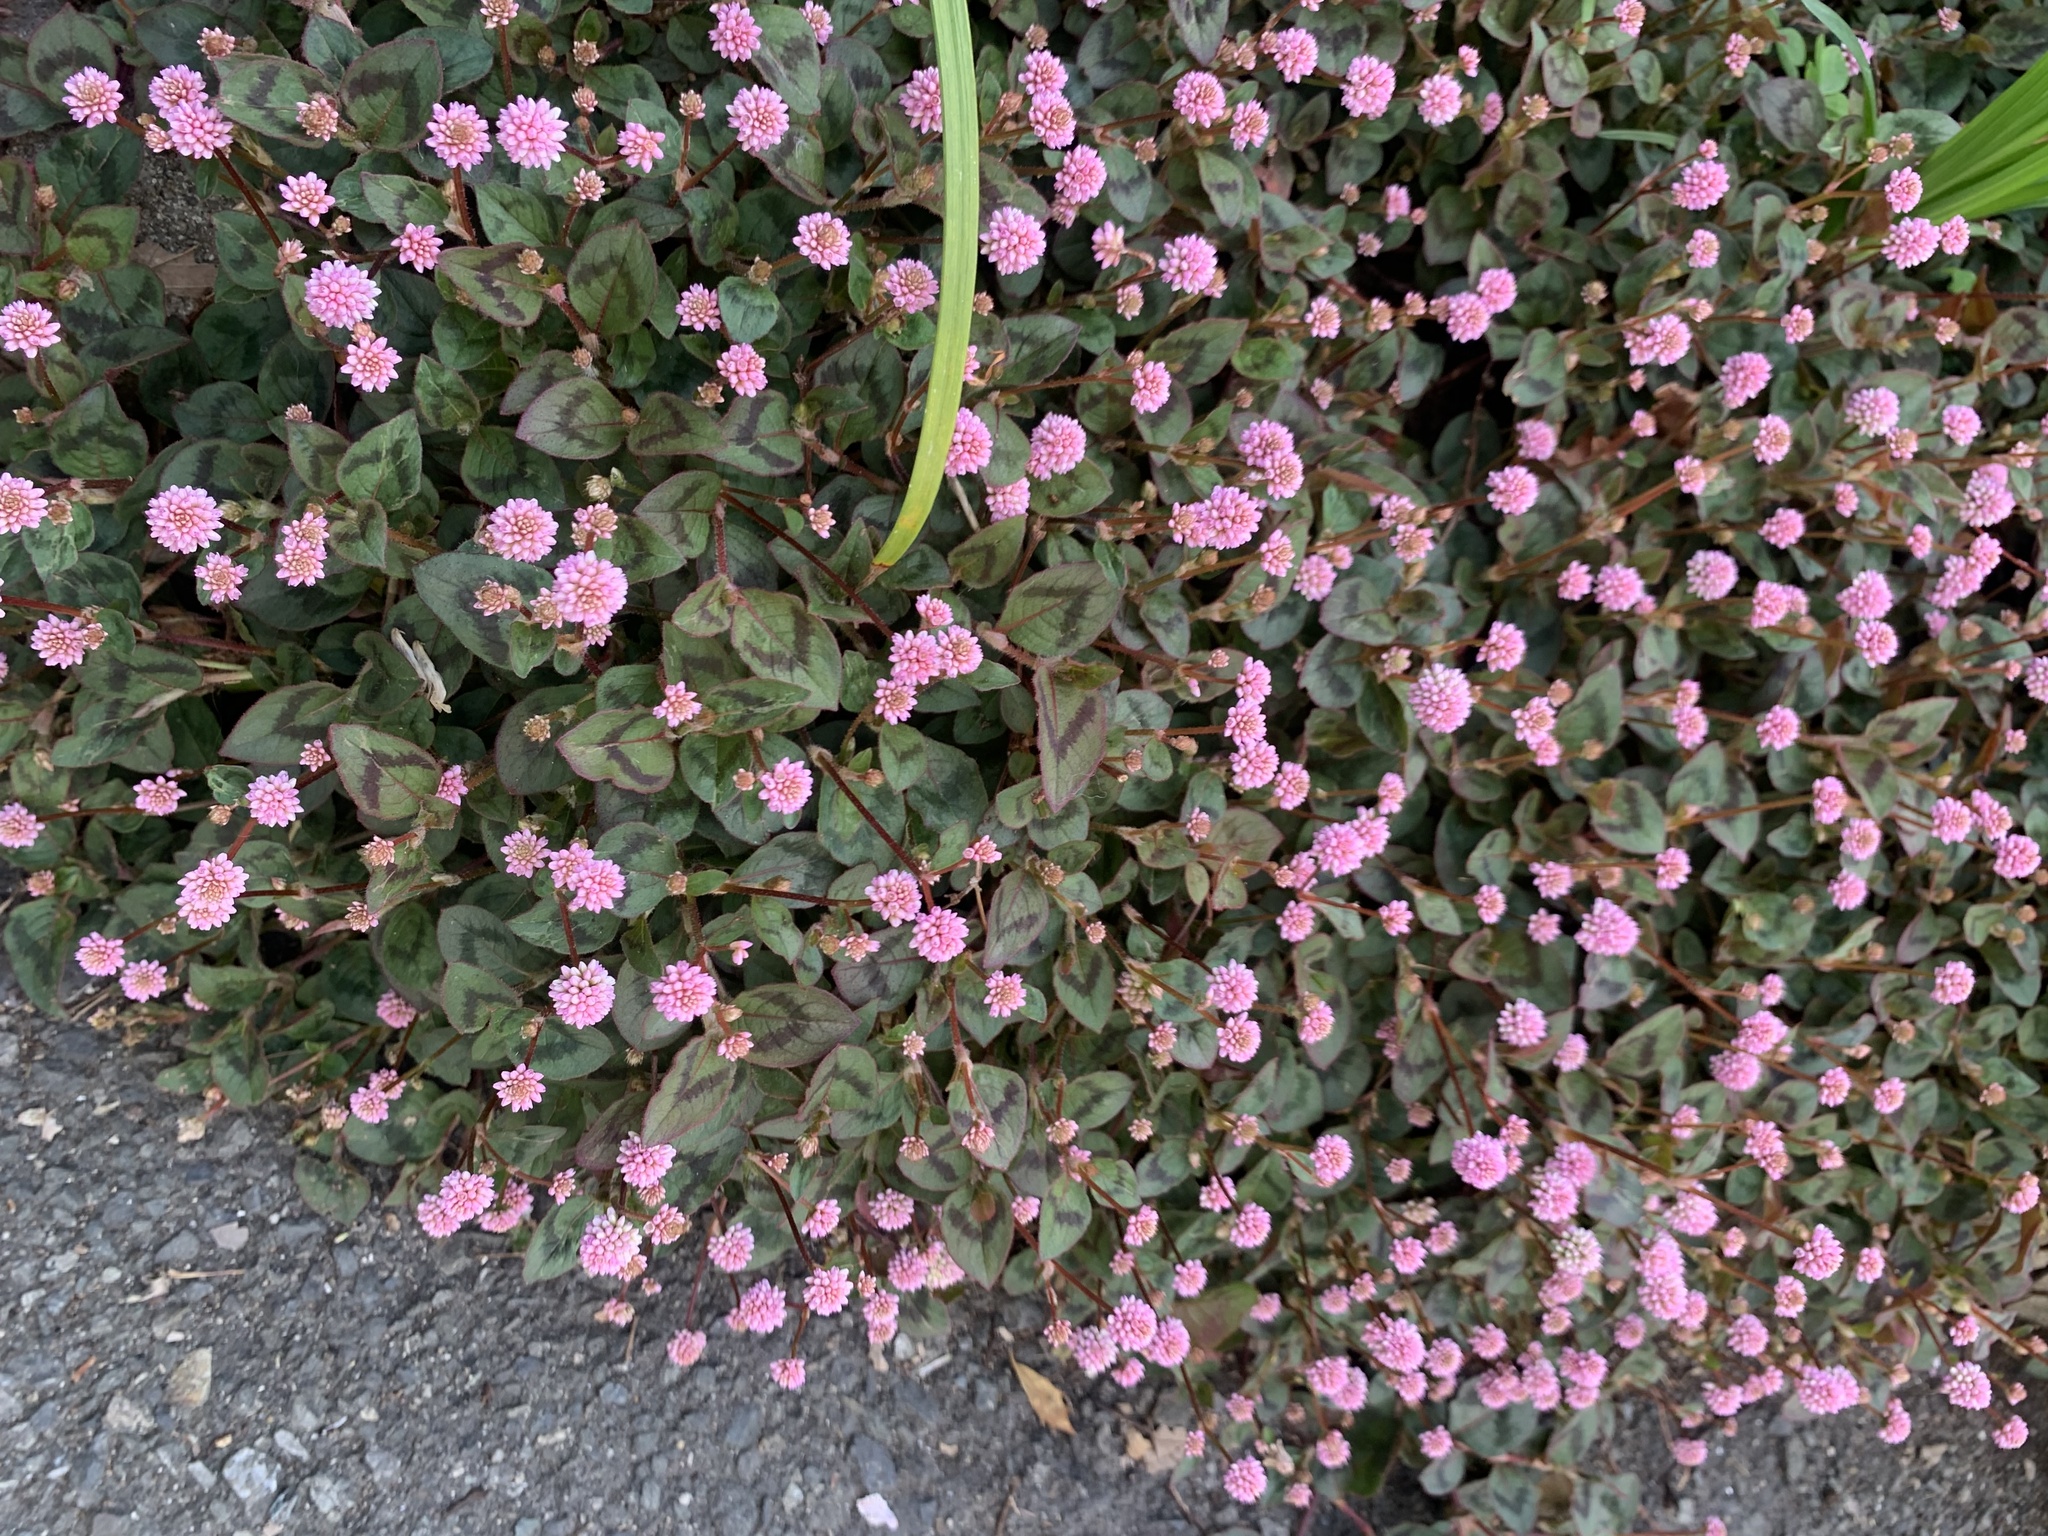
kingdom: Plantae
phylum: Tracheophyta
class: Magnoliopsida
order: Caryophyllales
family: Polygonaceae
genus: Persicaria
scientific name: Persicaria capitata
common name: Pinkhead smartweed
